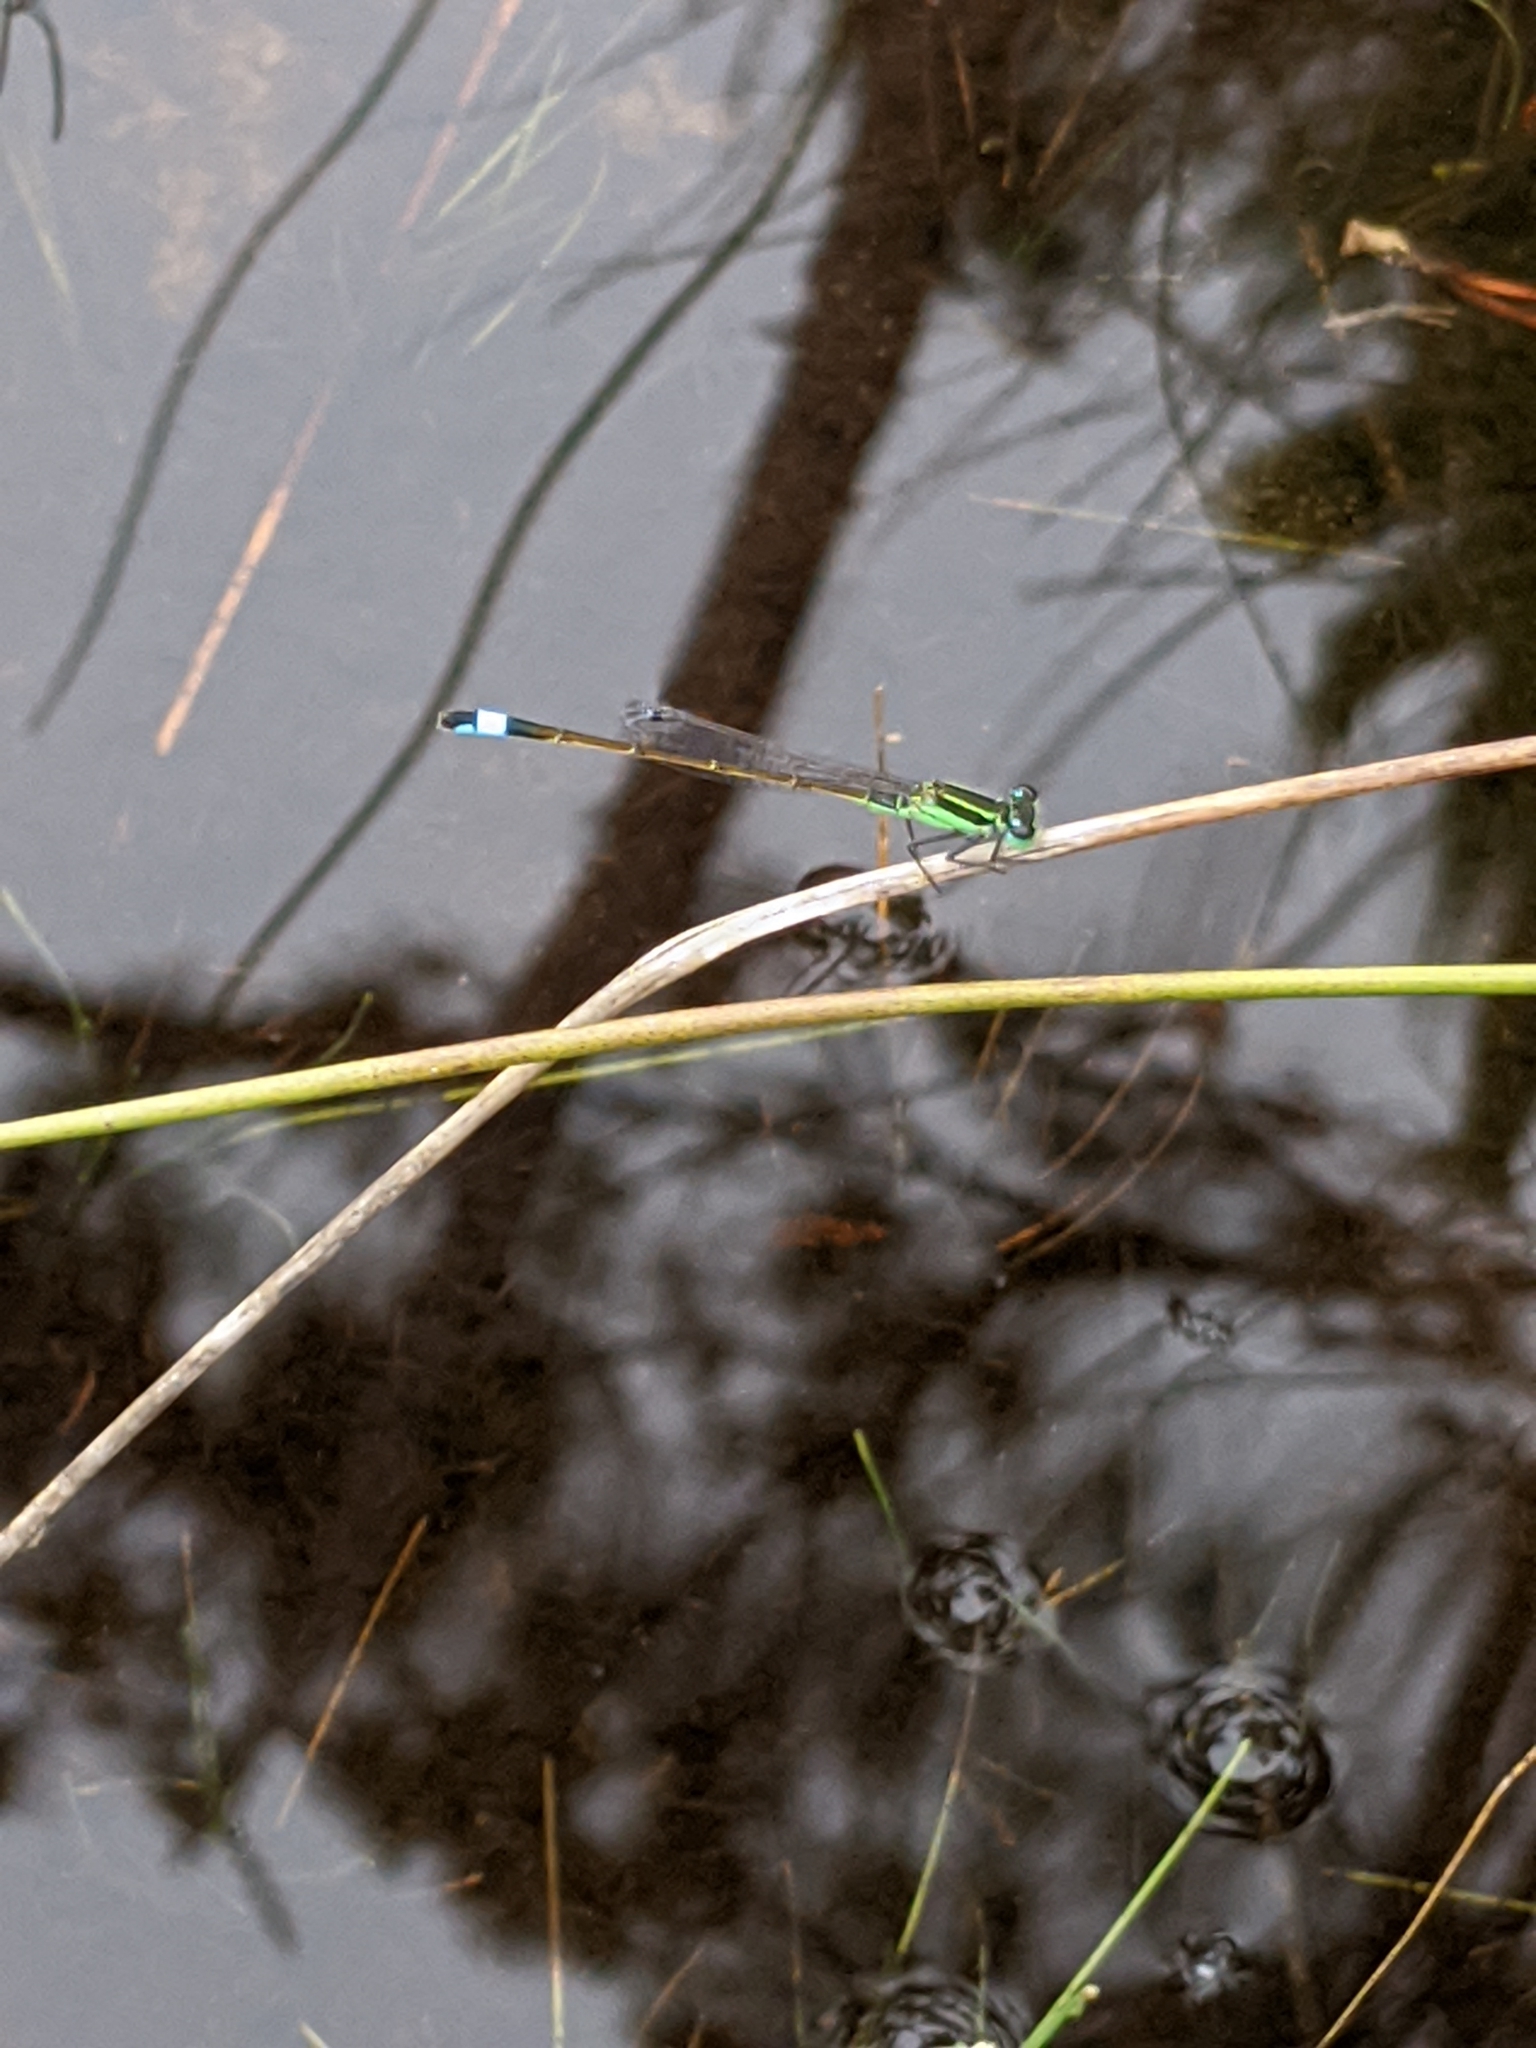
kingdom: Animalia
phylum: Arthropoda
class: Insecta
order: Odonata
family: Coenagrionidae
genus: Ischnura
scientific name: Ischnura ramburii
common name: Rambur's forktail
